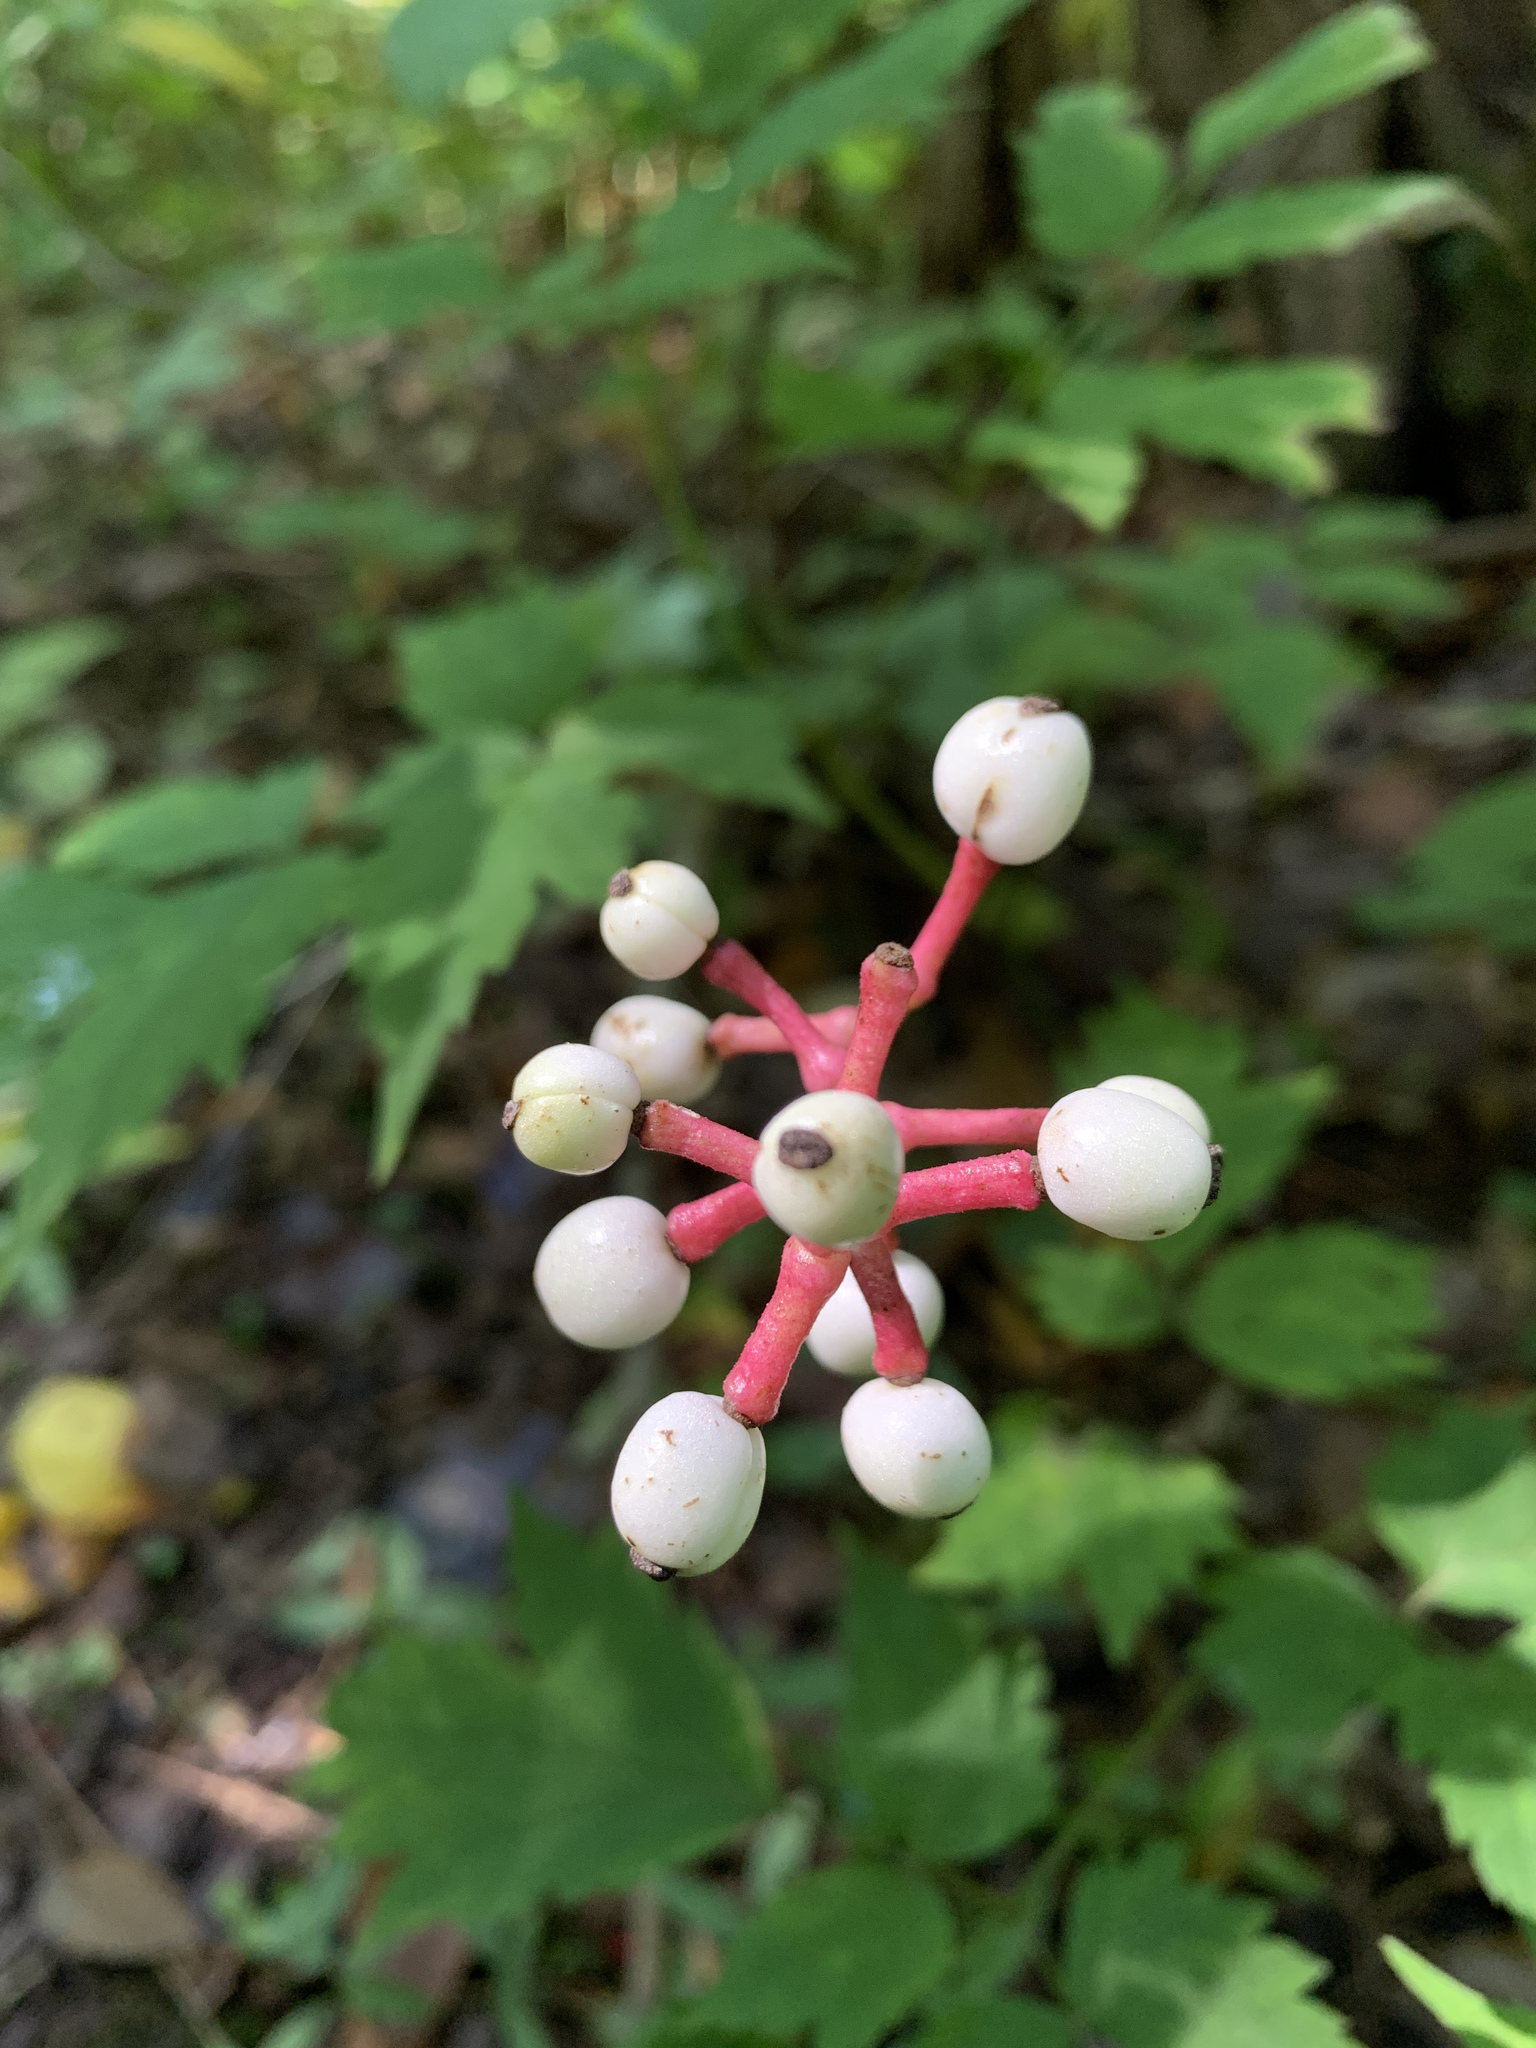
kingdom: Plantae
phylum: Tracheophyta
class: Magnoliopsida
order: Ranunculales
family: Ranunculaceae
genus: Actaea
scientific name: Actaea pachypoda
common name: Doll's-eyes
